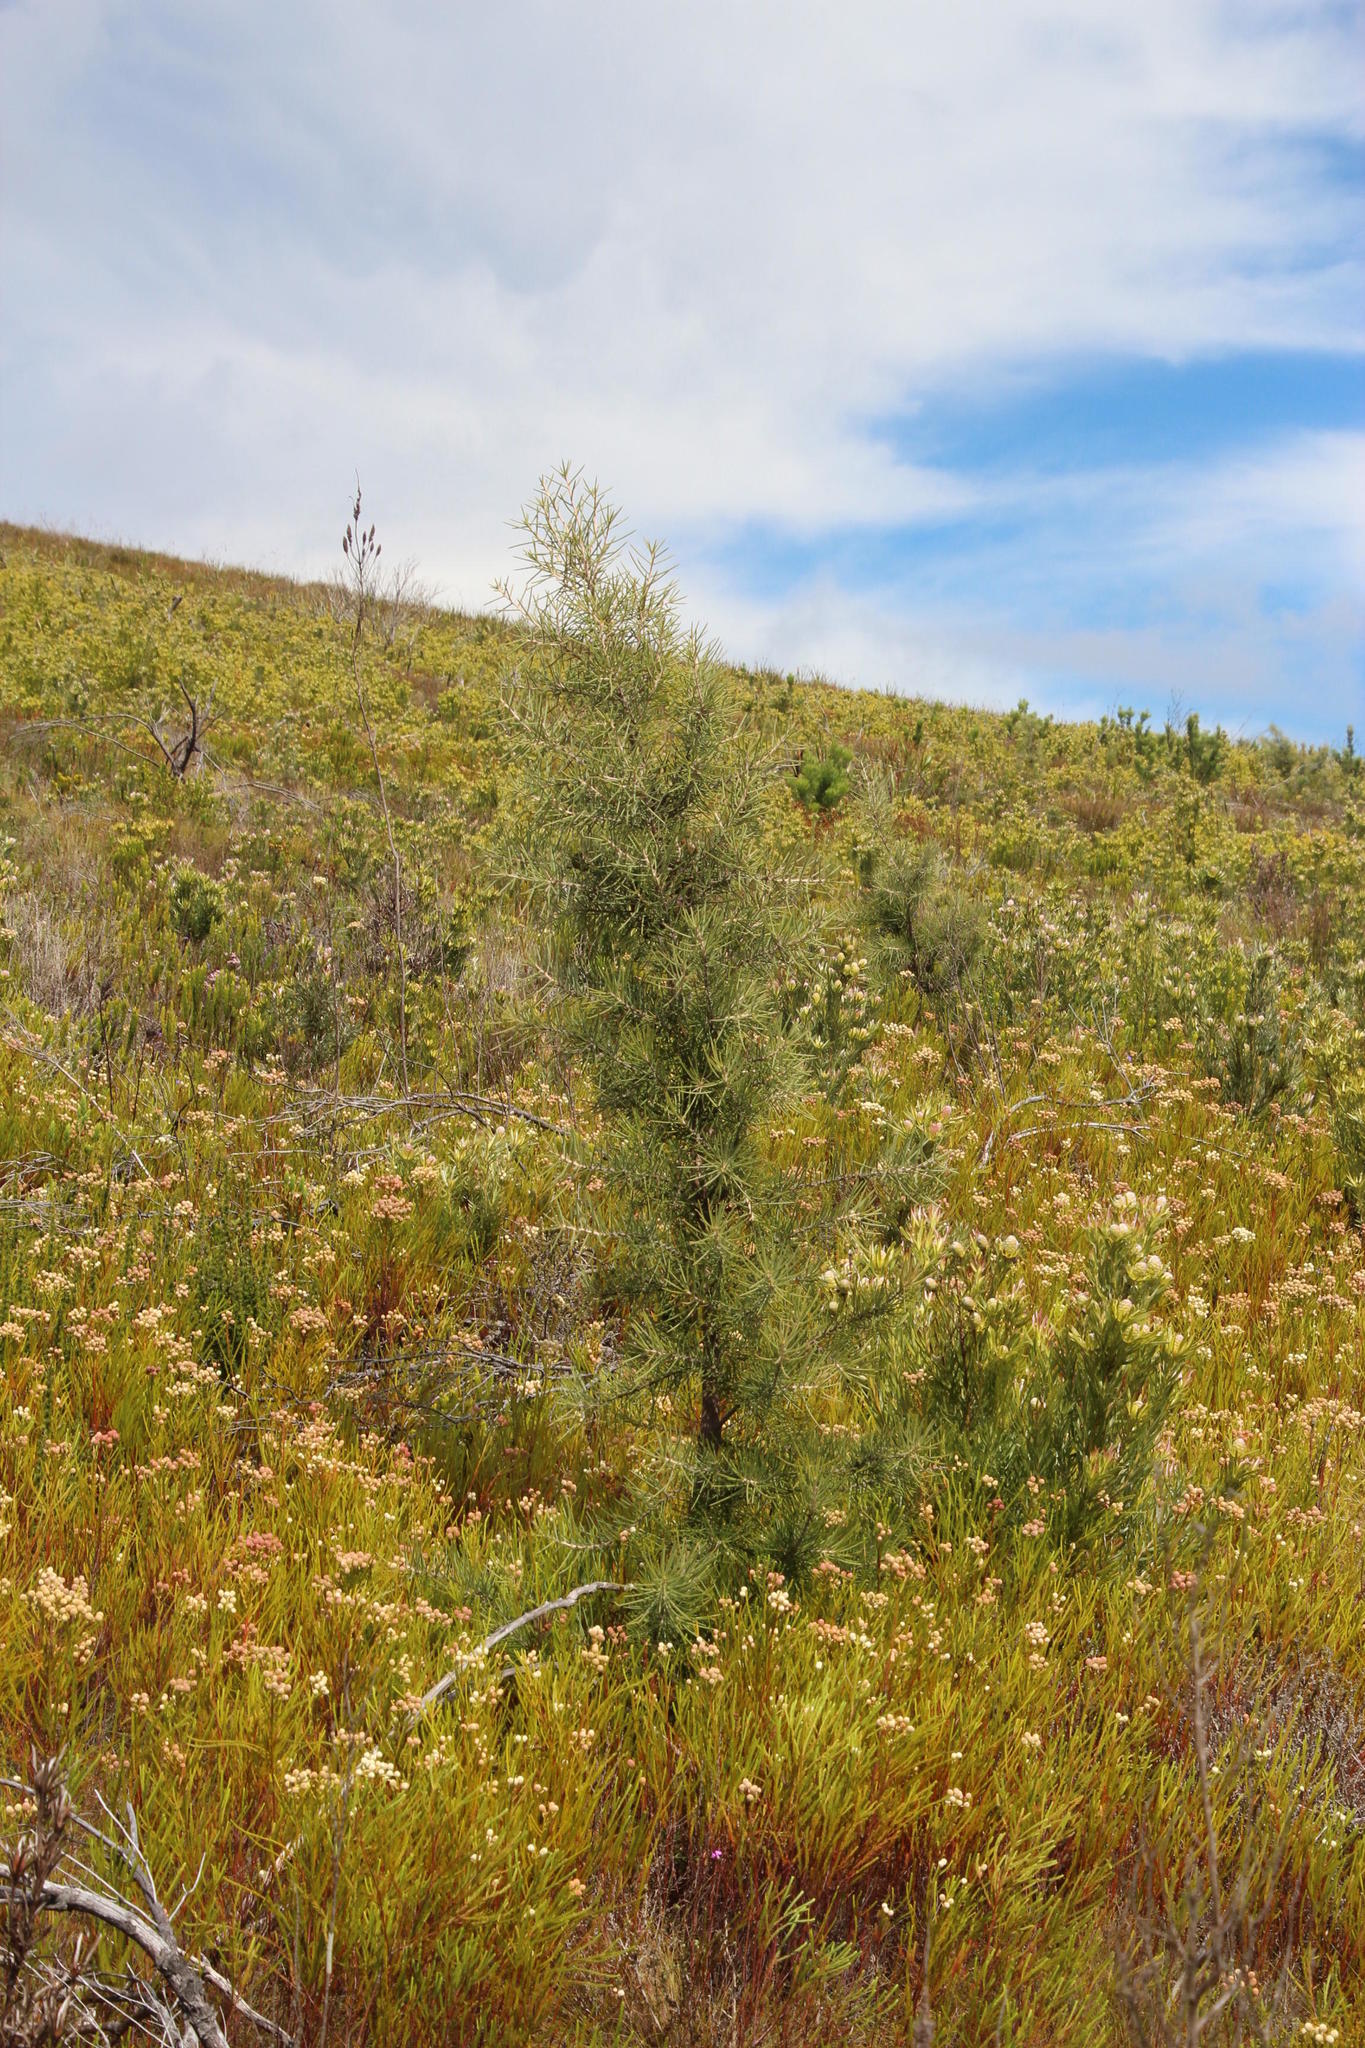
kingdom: Plantae
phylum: Tracheophyta
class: Magnoliopsida
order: Proteales
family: Proteaceae
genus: Hakea
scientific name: Hakea gibbosa
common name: Rock hakea
